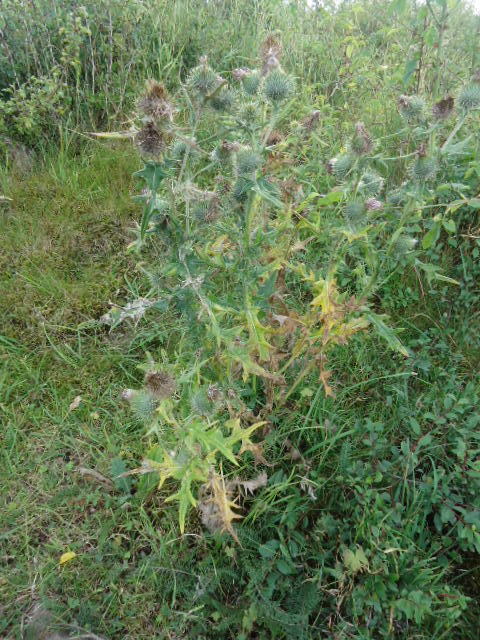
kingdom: Plantae
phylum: Tracheophyta
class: Magnoliopsida
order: Asterales
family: Asteraceae
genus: Cirsium
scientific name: Cirsium vulgare
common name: Bull thistle
